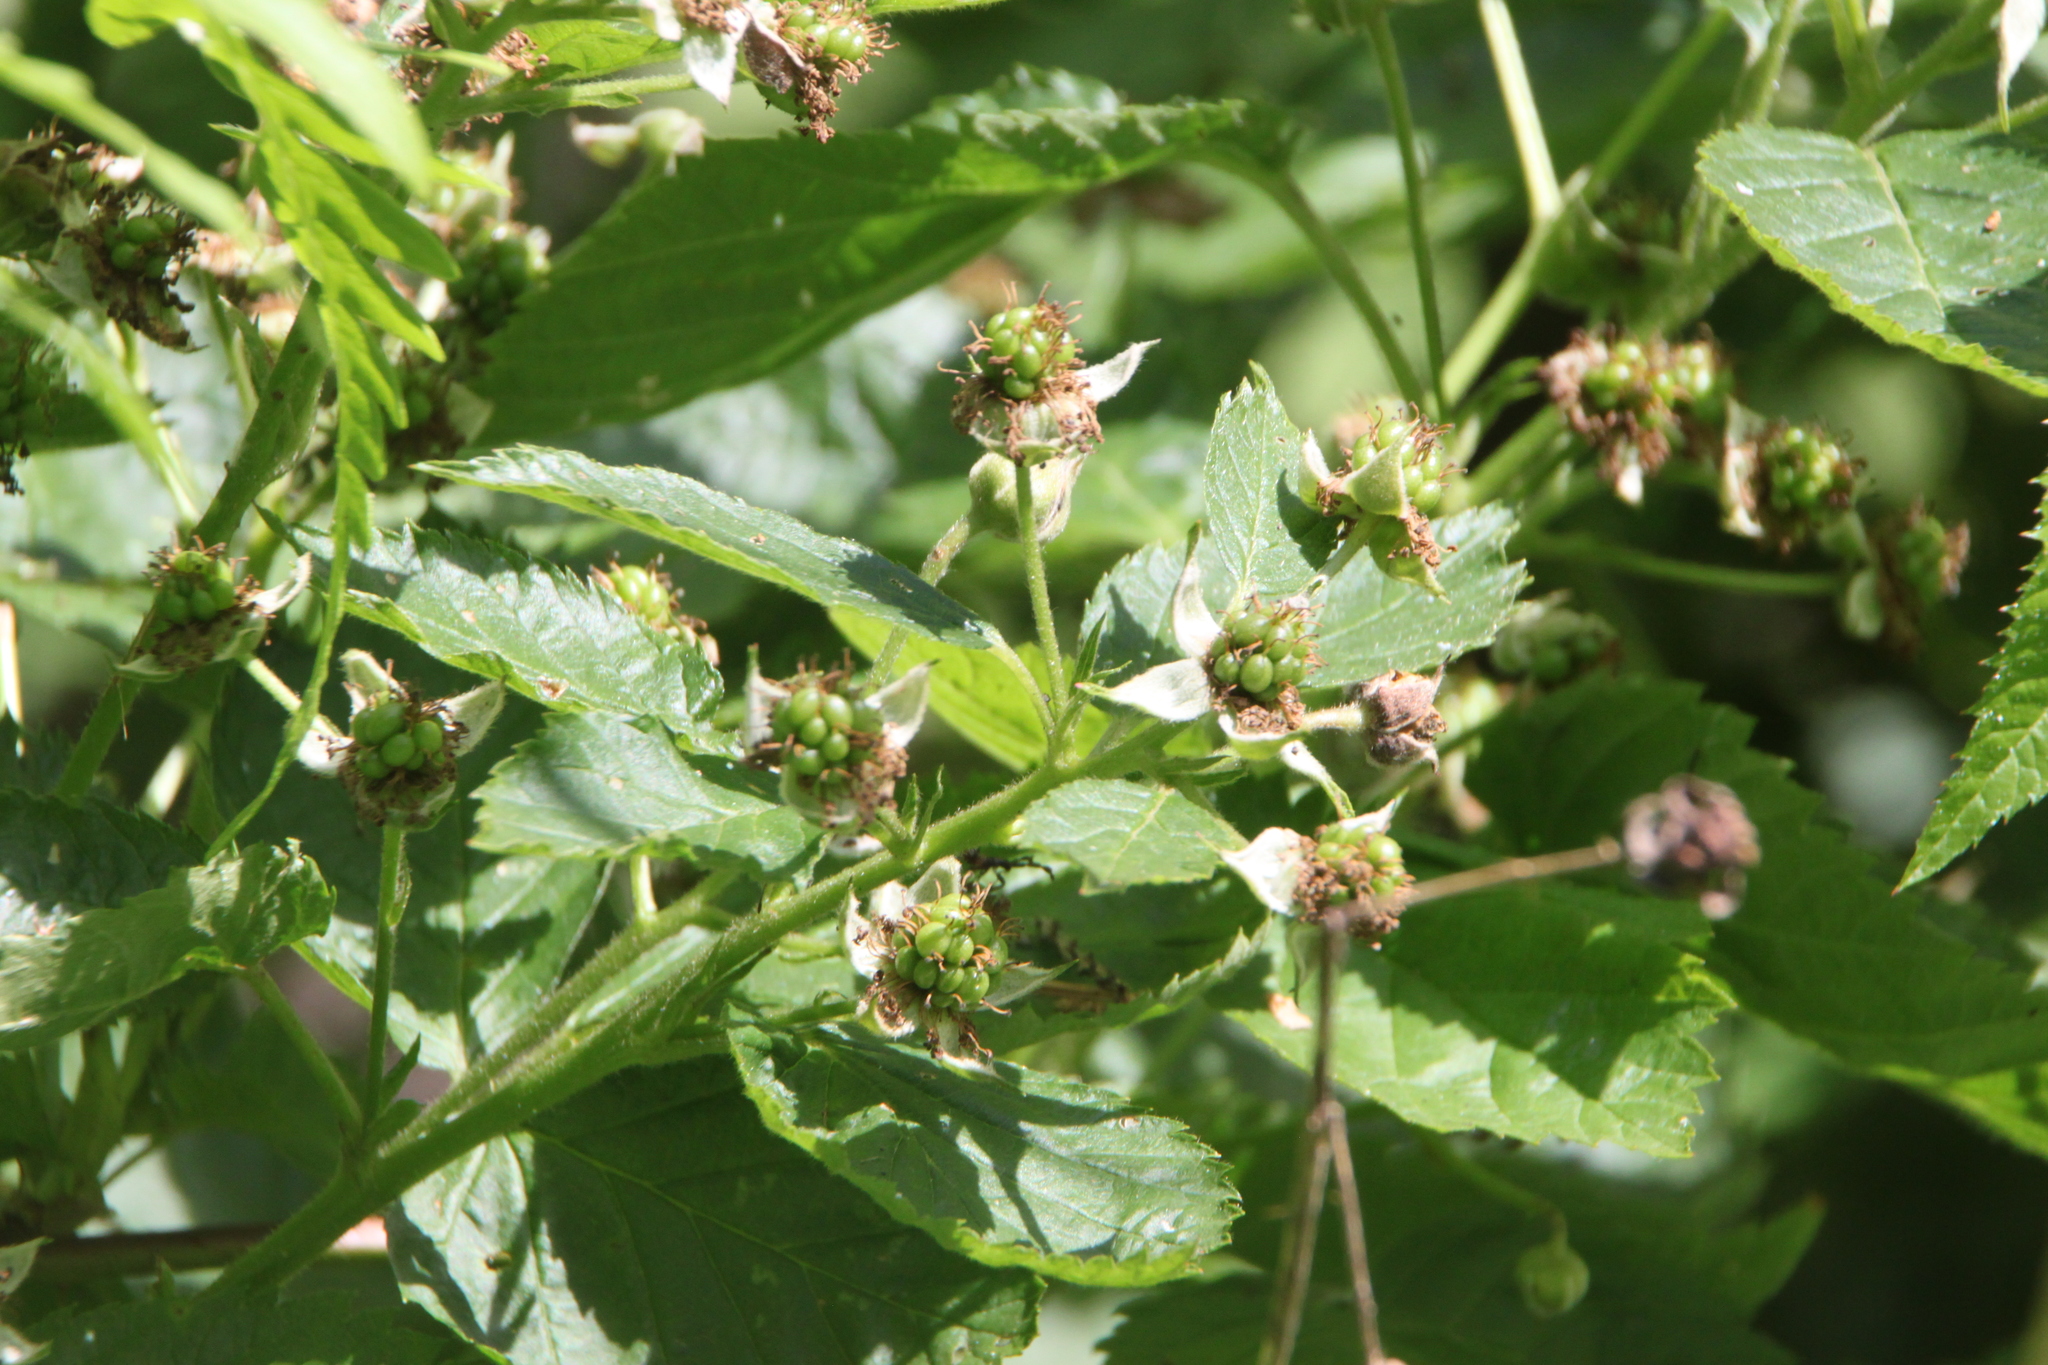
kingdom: Plantae
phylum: Tracheophyta
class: Magnoliopsida
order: Rosales
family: Rosaceae
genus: Rubus
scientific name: Rubus polonicus
